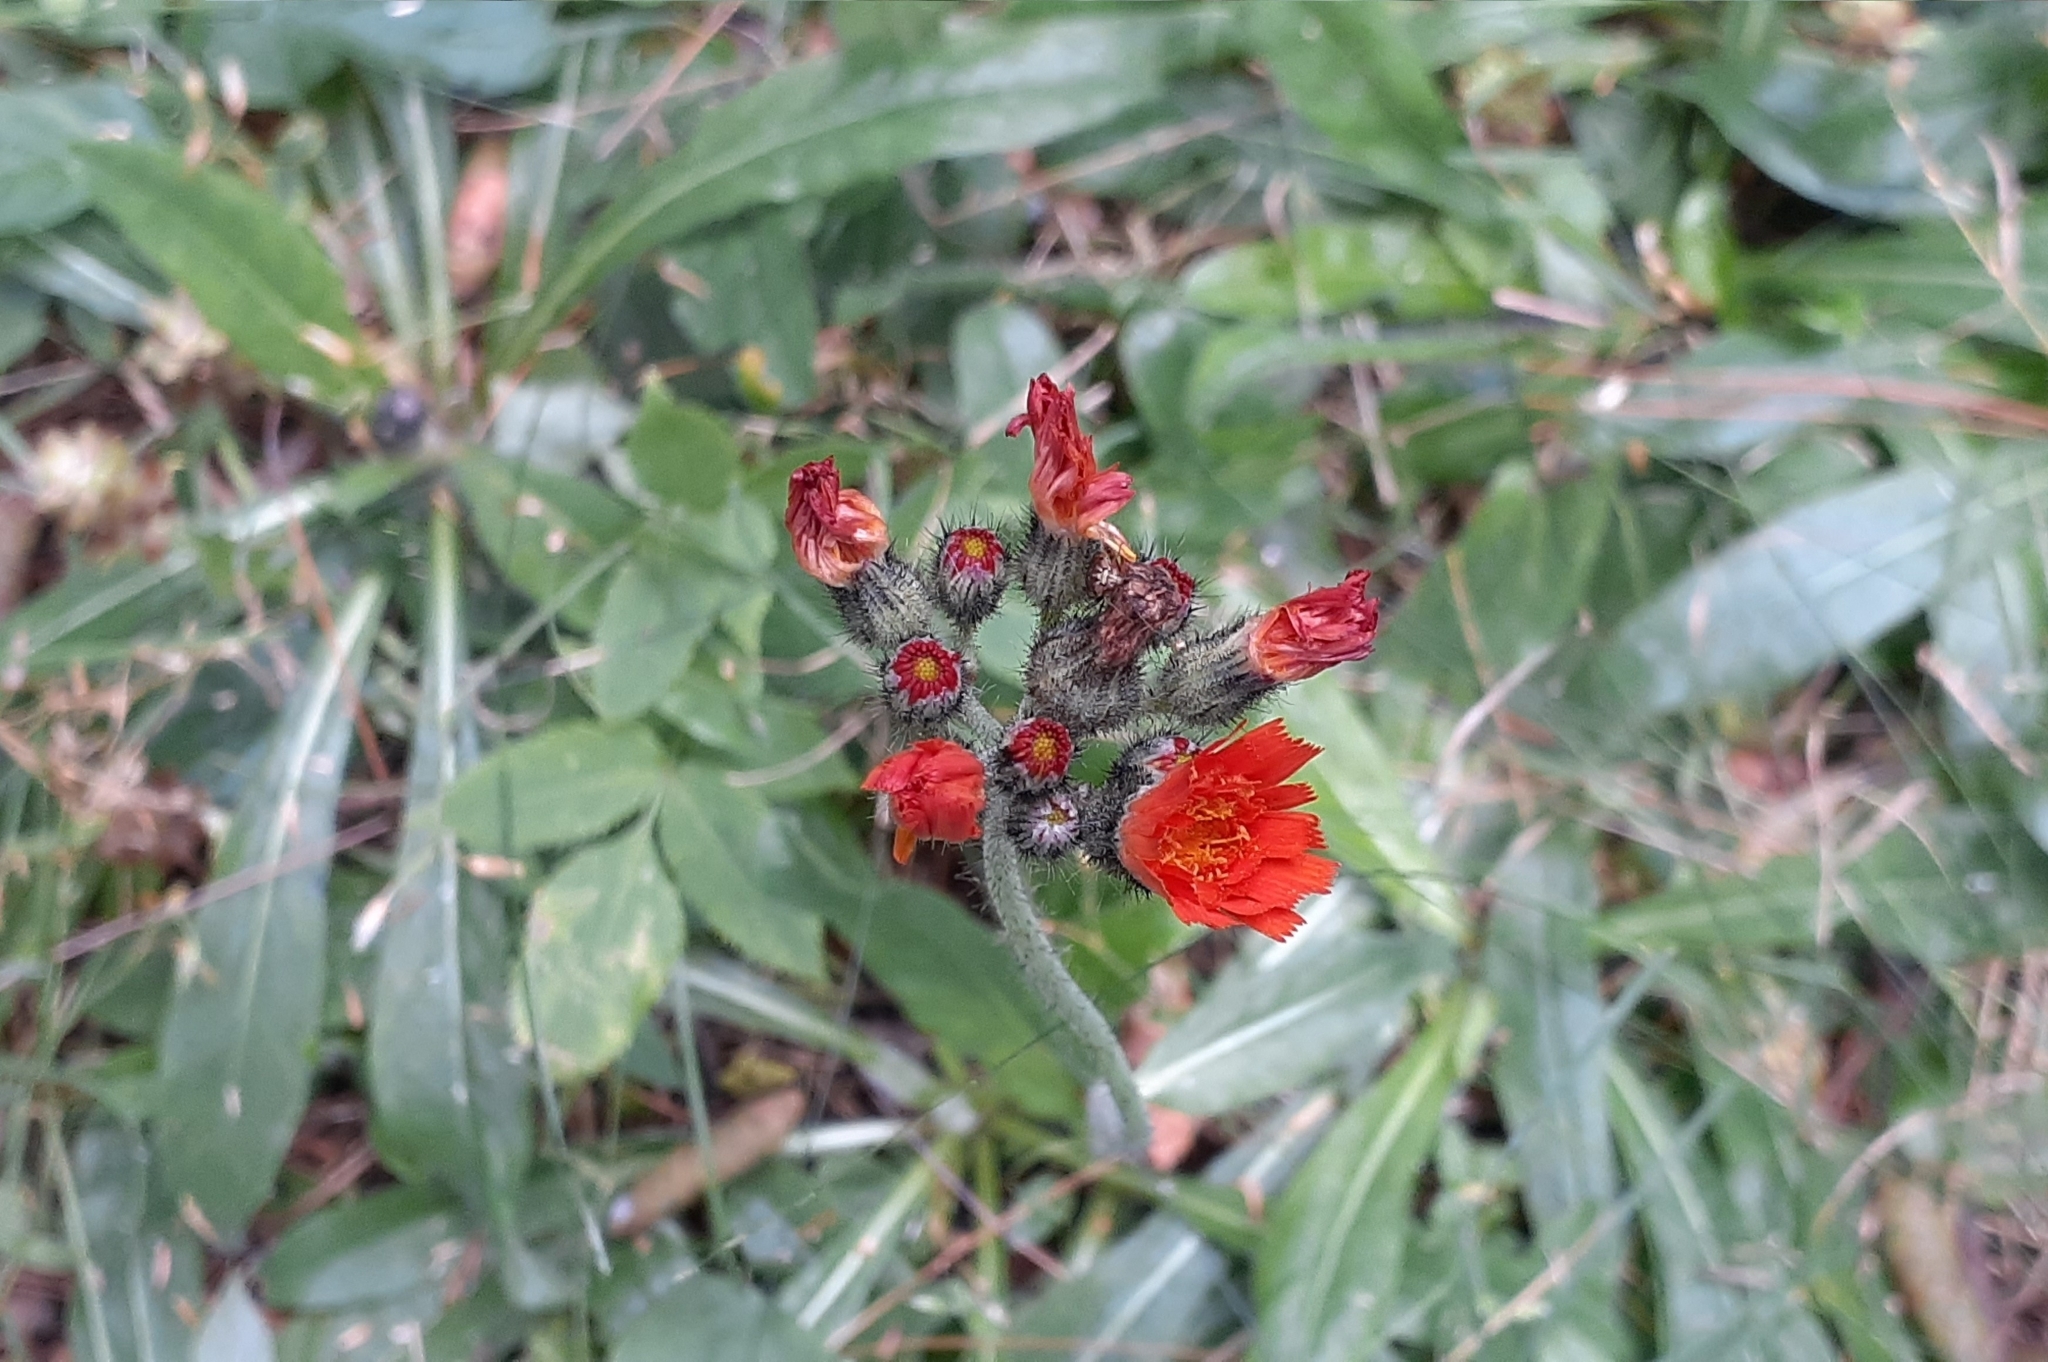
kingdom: Plantae
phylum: Tracheophyta
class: Magnoliopsida
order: Asterales
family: Asteraceae
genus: Pilosella
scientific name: Pilosella aurantiaca
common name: Fox-and-cubs
